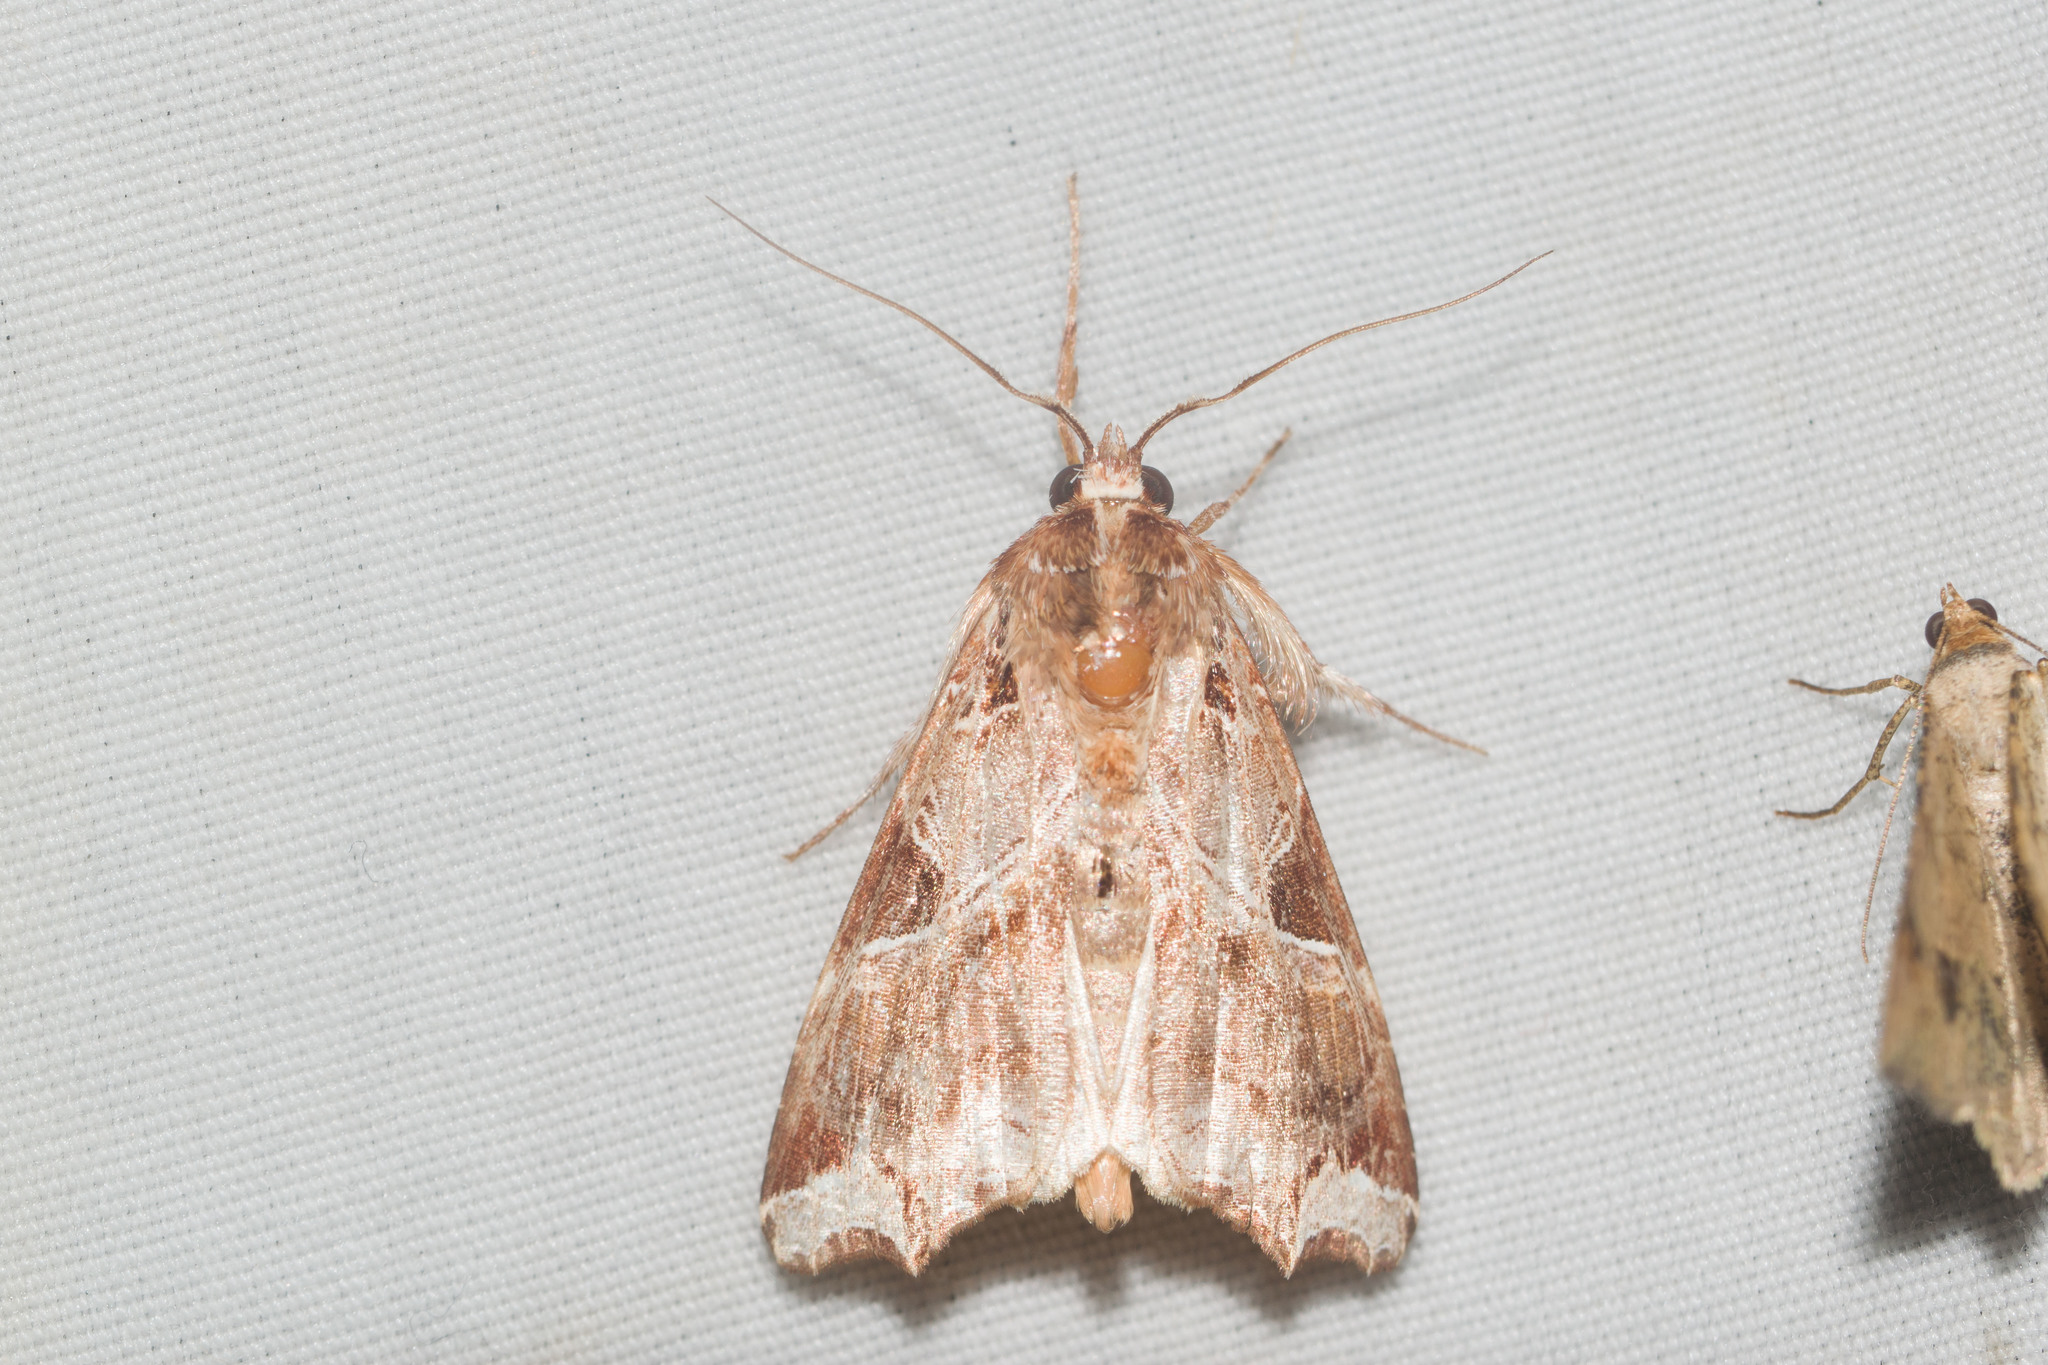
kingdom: Animalia
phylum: Arthropoda
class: Insecta
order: Lepidoptera
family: Noctuidae
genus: Callopistria
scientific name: Callopistria floridensis
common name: Florida fern moth
